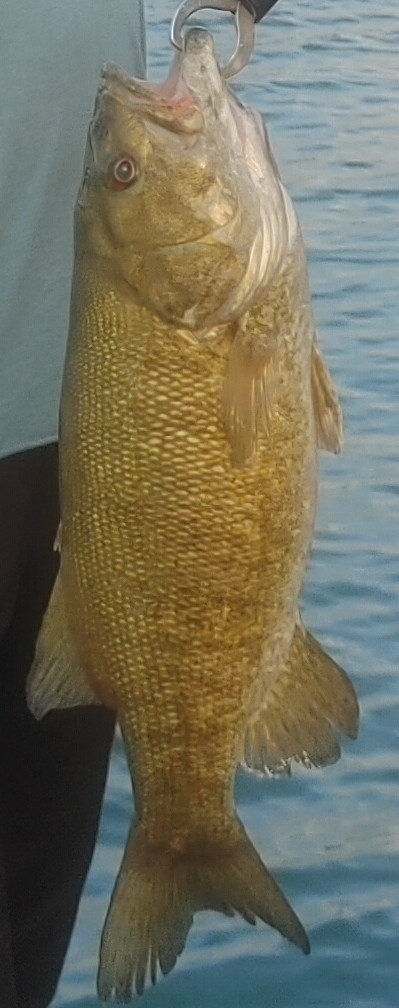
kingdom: Animalia
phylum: Chordata
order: Perciformes
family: Centrarchidae
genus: Micropterus
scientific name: Micropterus dolomieu
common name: Smallmouth bass
